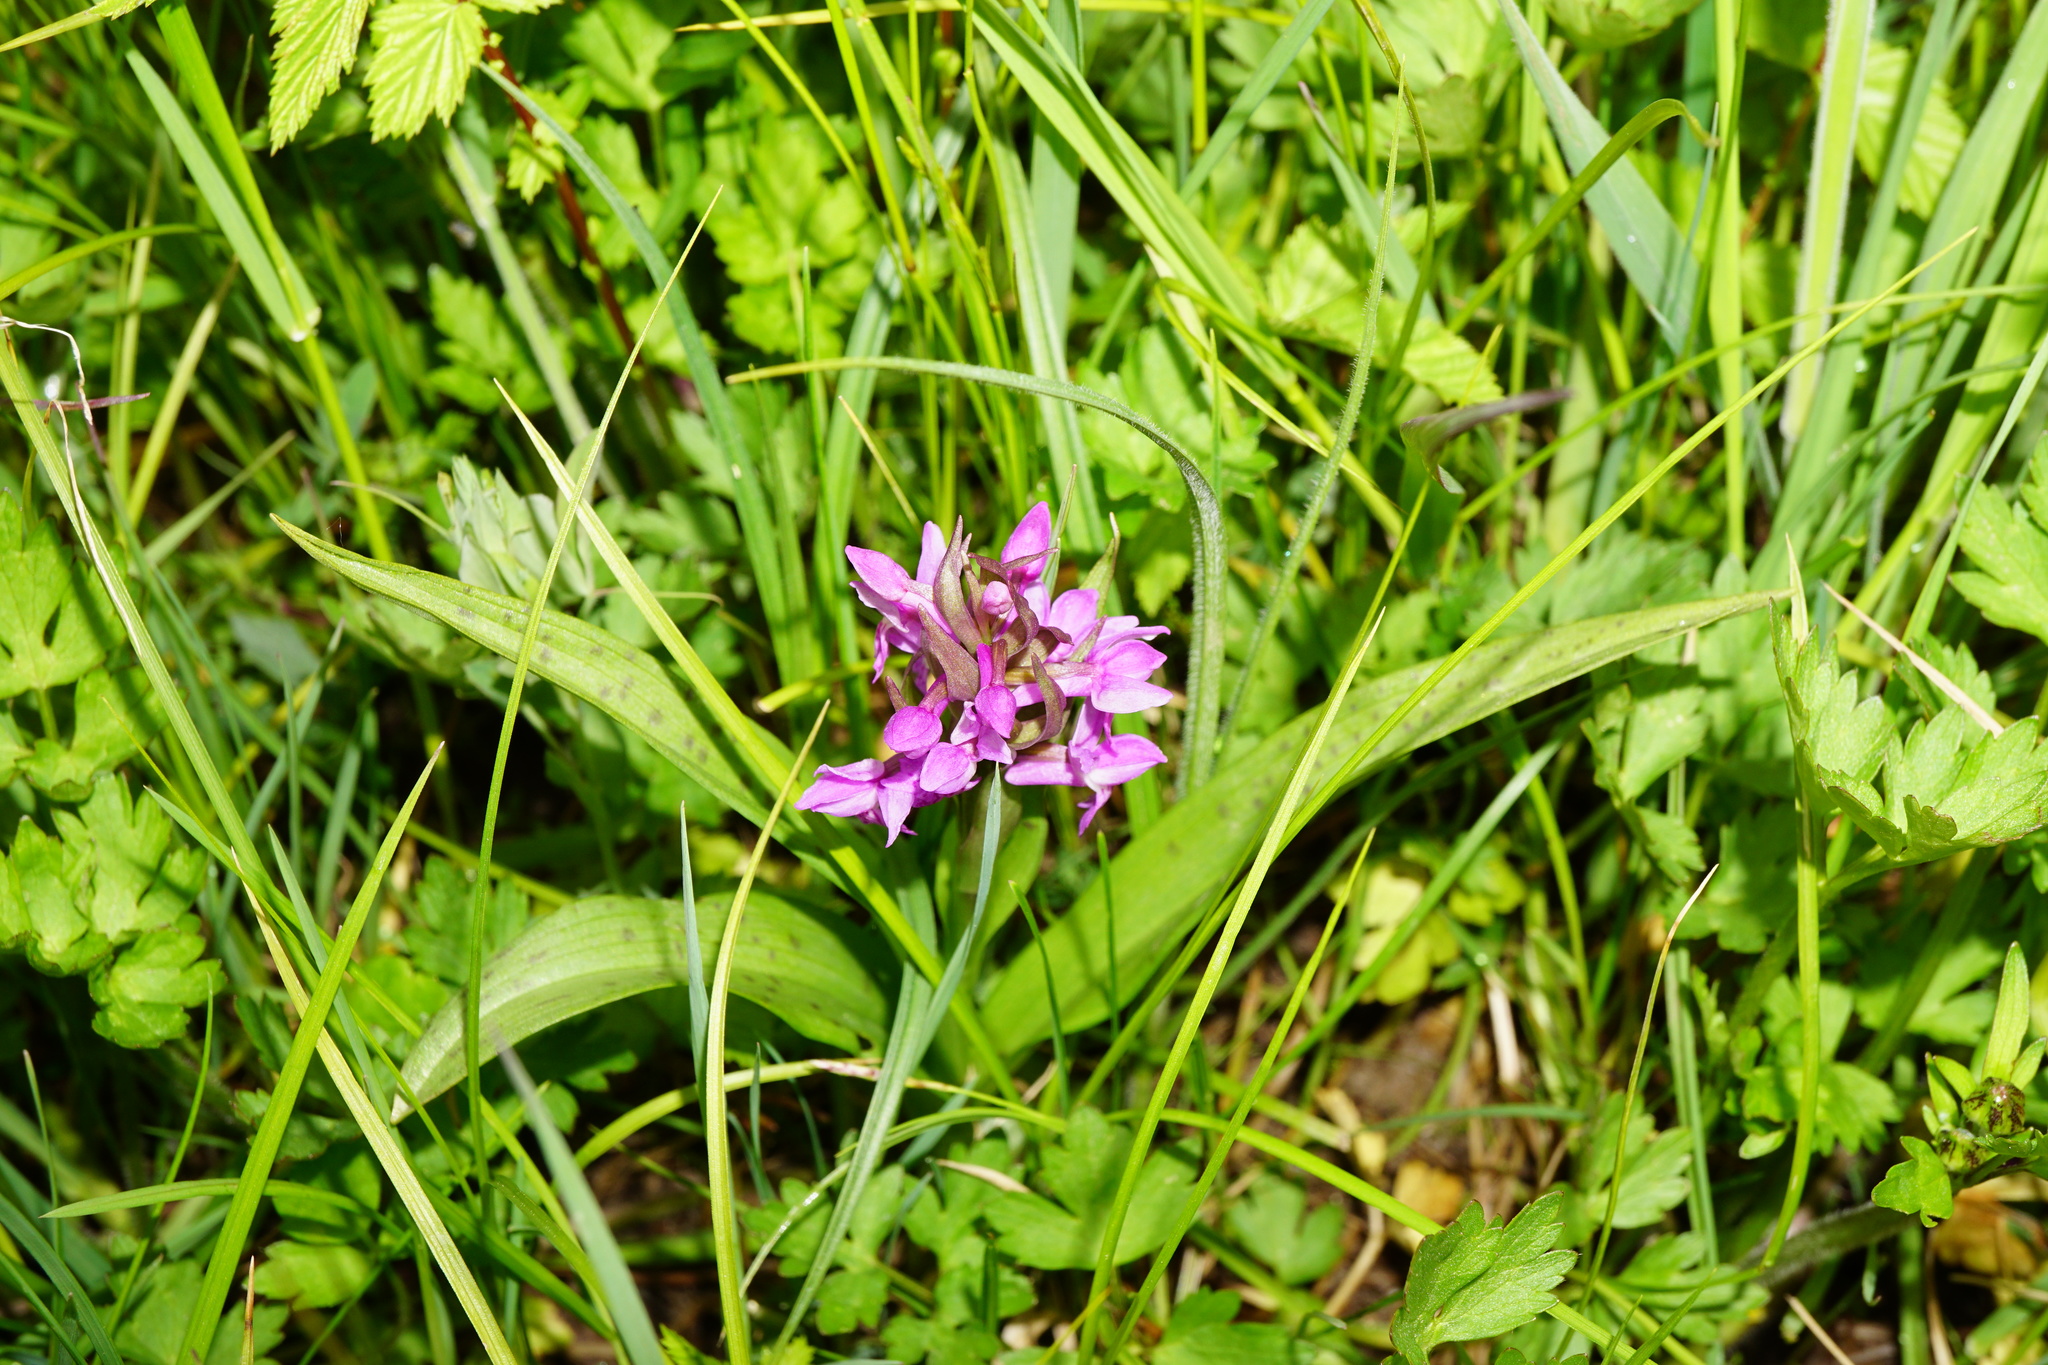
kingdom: Plantae
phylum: Tracheophyta
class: Liliopsida
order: Asparagales
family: Orchidaceae
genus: Dactylorhiza
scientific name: Dactylorhiza majalis
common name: Marsh orchid
